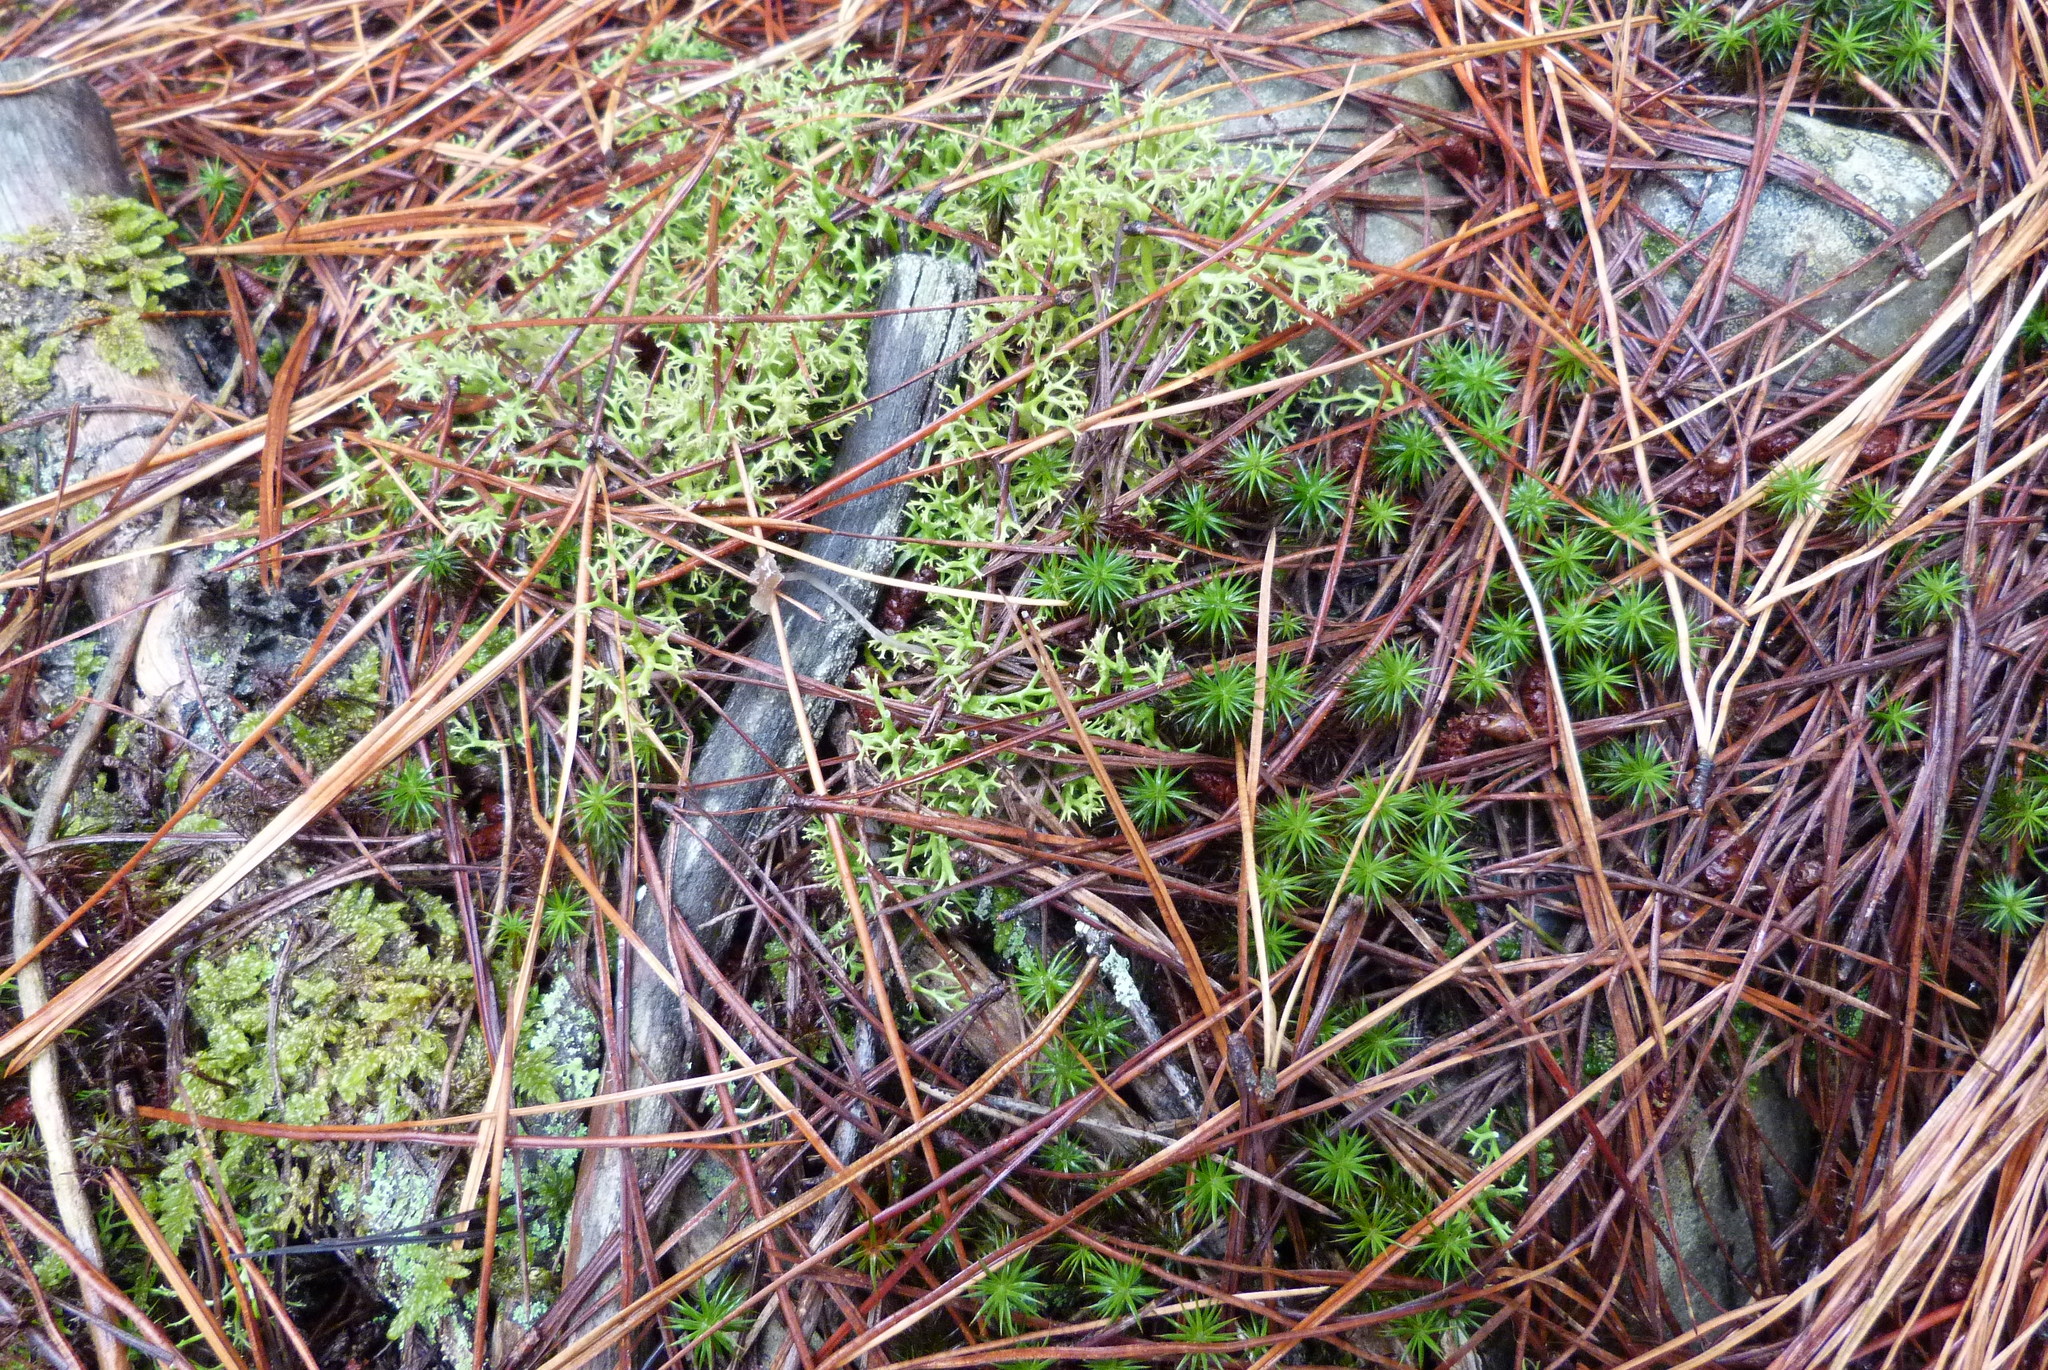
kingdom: Plantae
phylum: Bryophyta
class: Polytrichopsida
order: Polytrichales
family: Polytrichaceae
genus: Polytrichum
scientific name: Polytrichum juniperinum
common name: Juniper haircap moss
